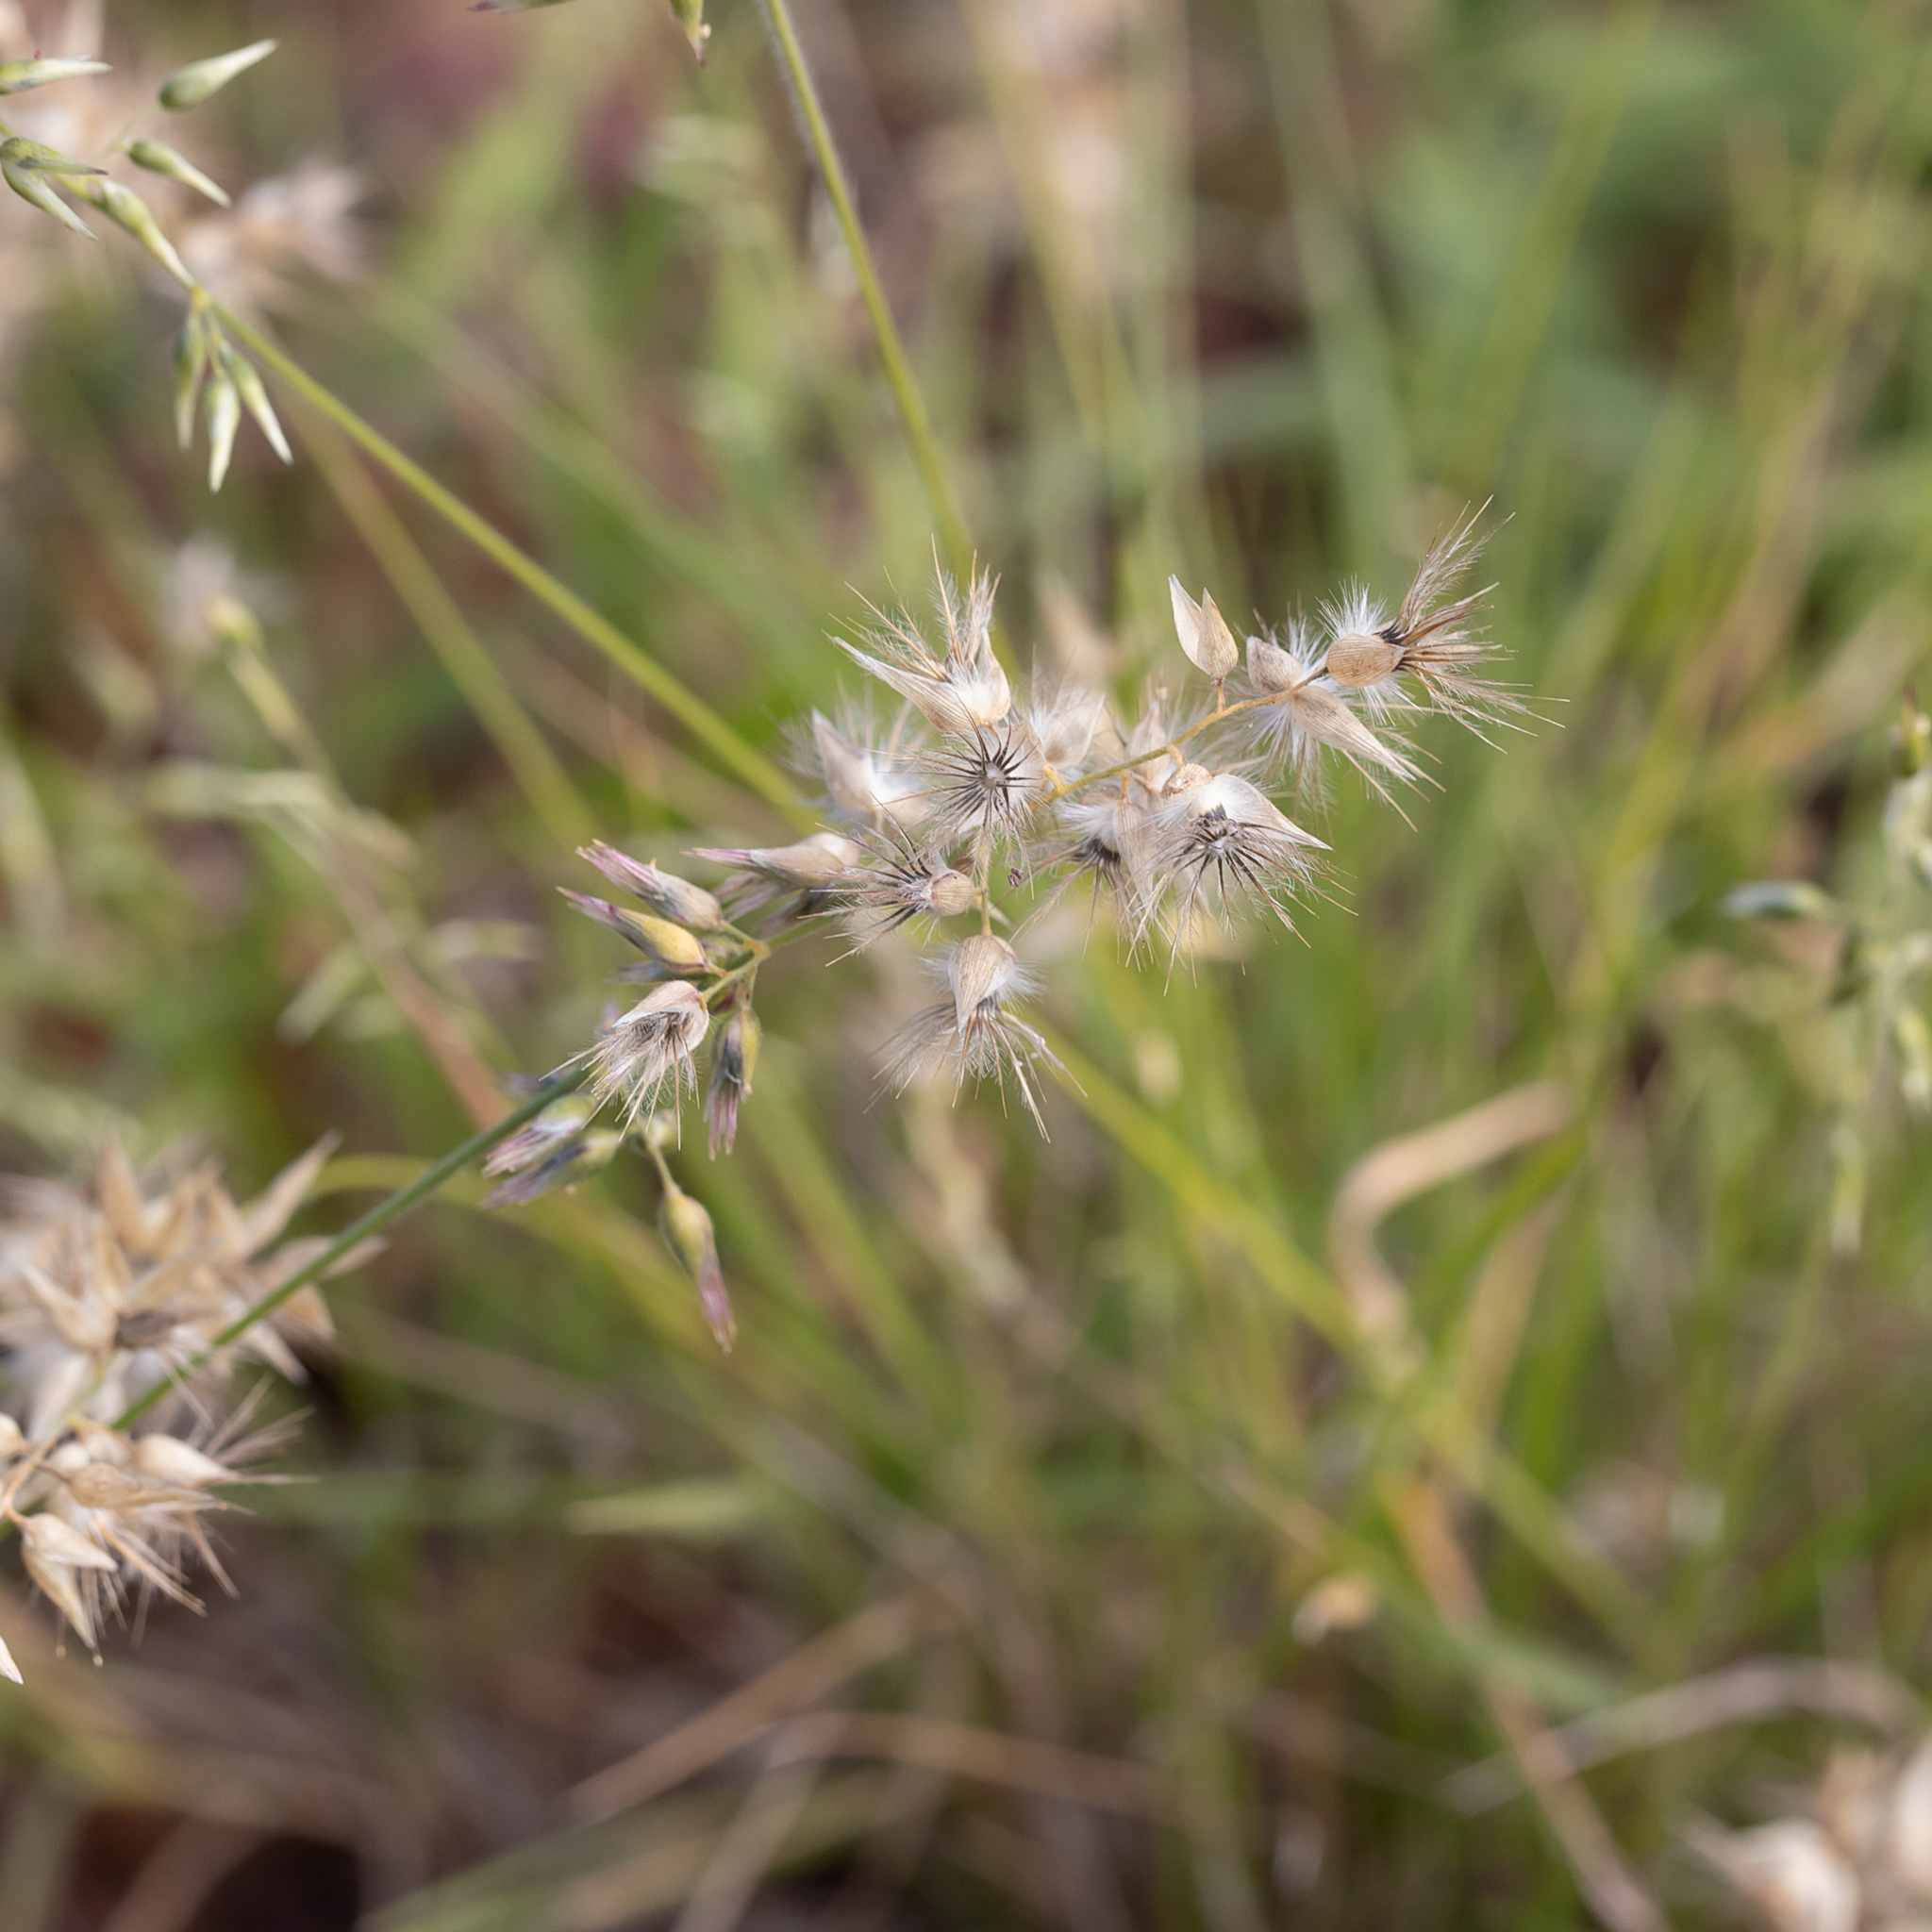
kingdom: Plantae
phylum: Tracheophyta
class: Liliopsida
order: Poales
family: Poaceae
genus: Enneapogon
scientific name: Enneapogon avenaceus
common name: Hairy oat grass
